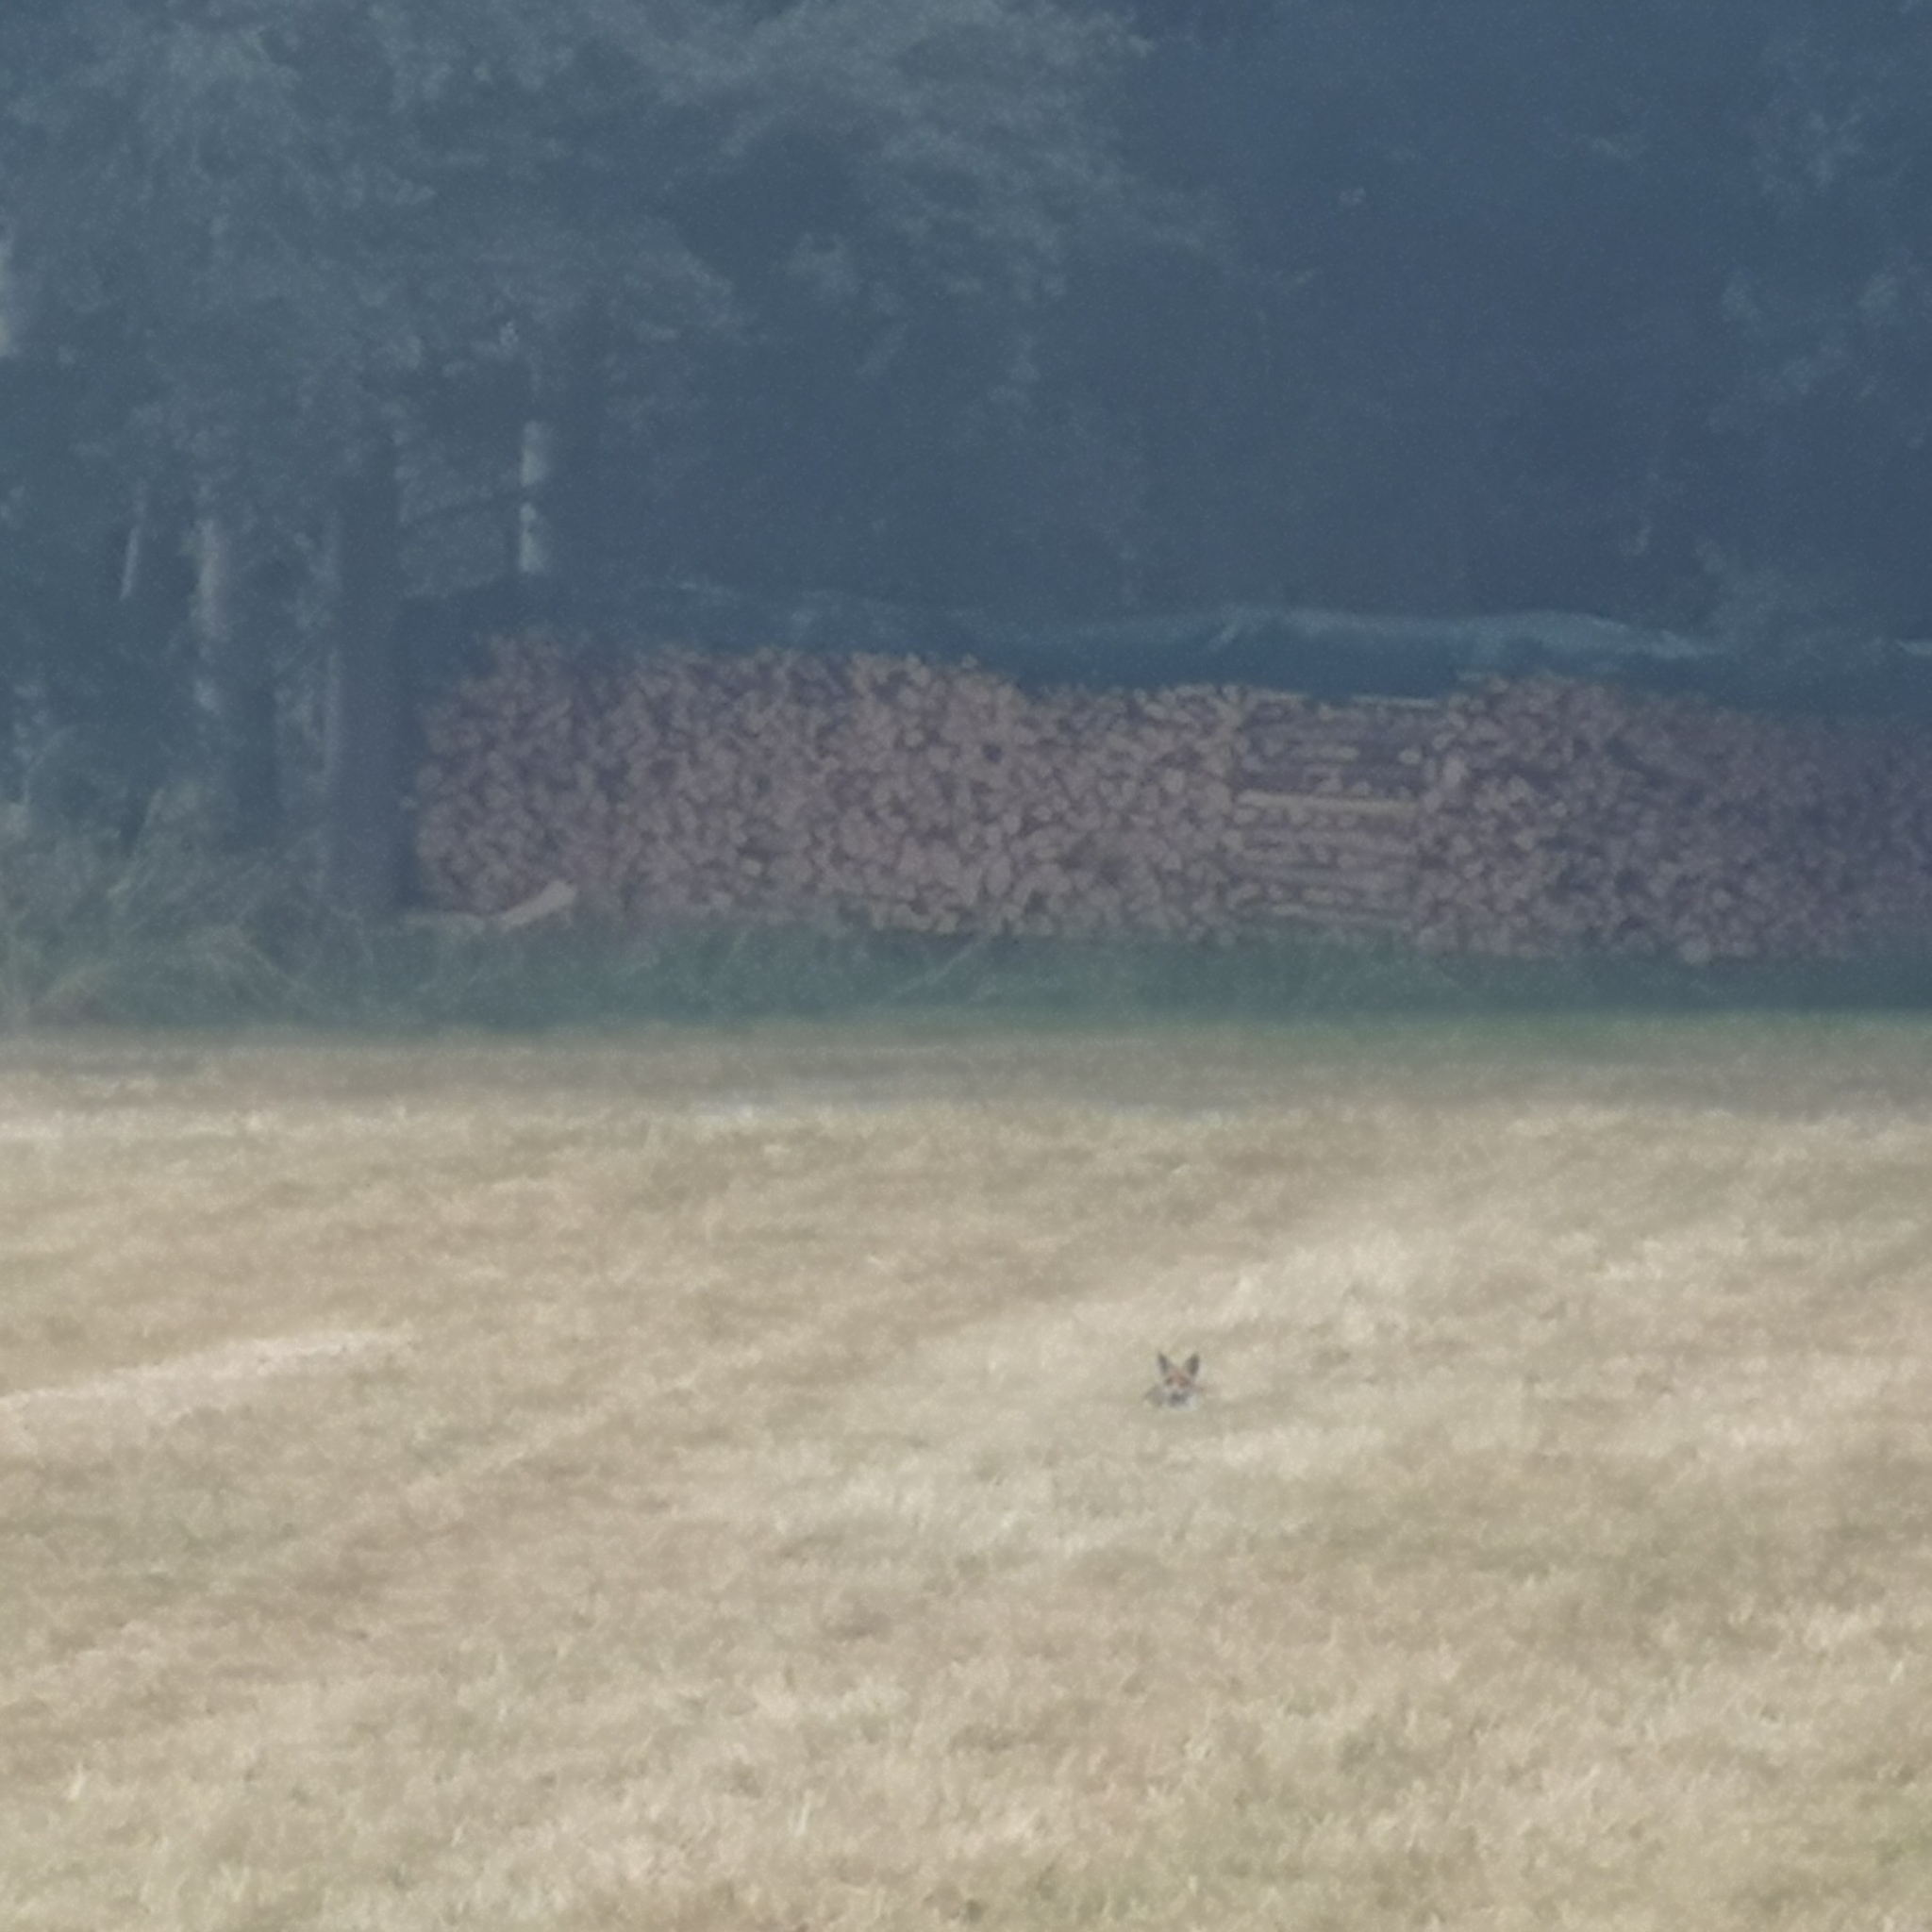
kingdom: Animalia
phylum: Chordata
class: Mammalia
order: Carnivora
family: Canidae
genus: Vulpes
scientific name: Vulpes vulpes
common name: Red fox
